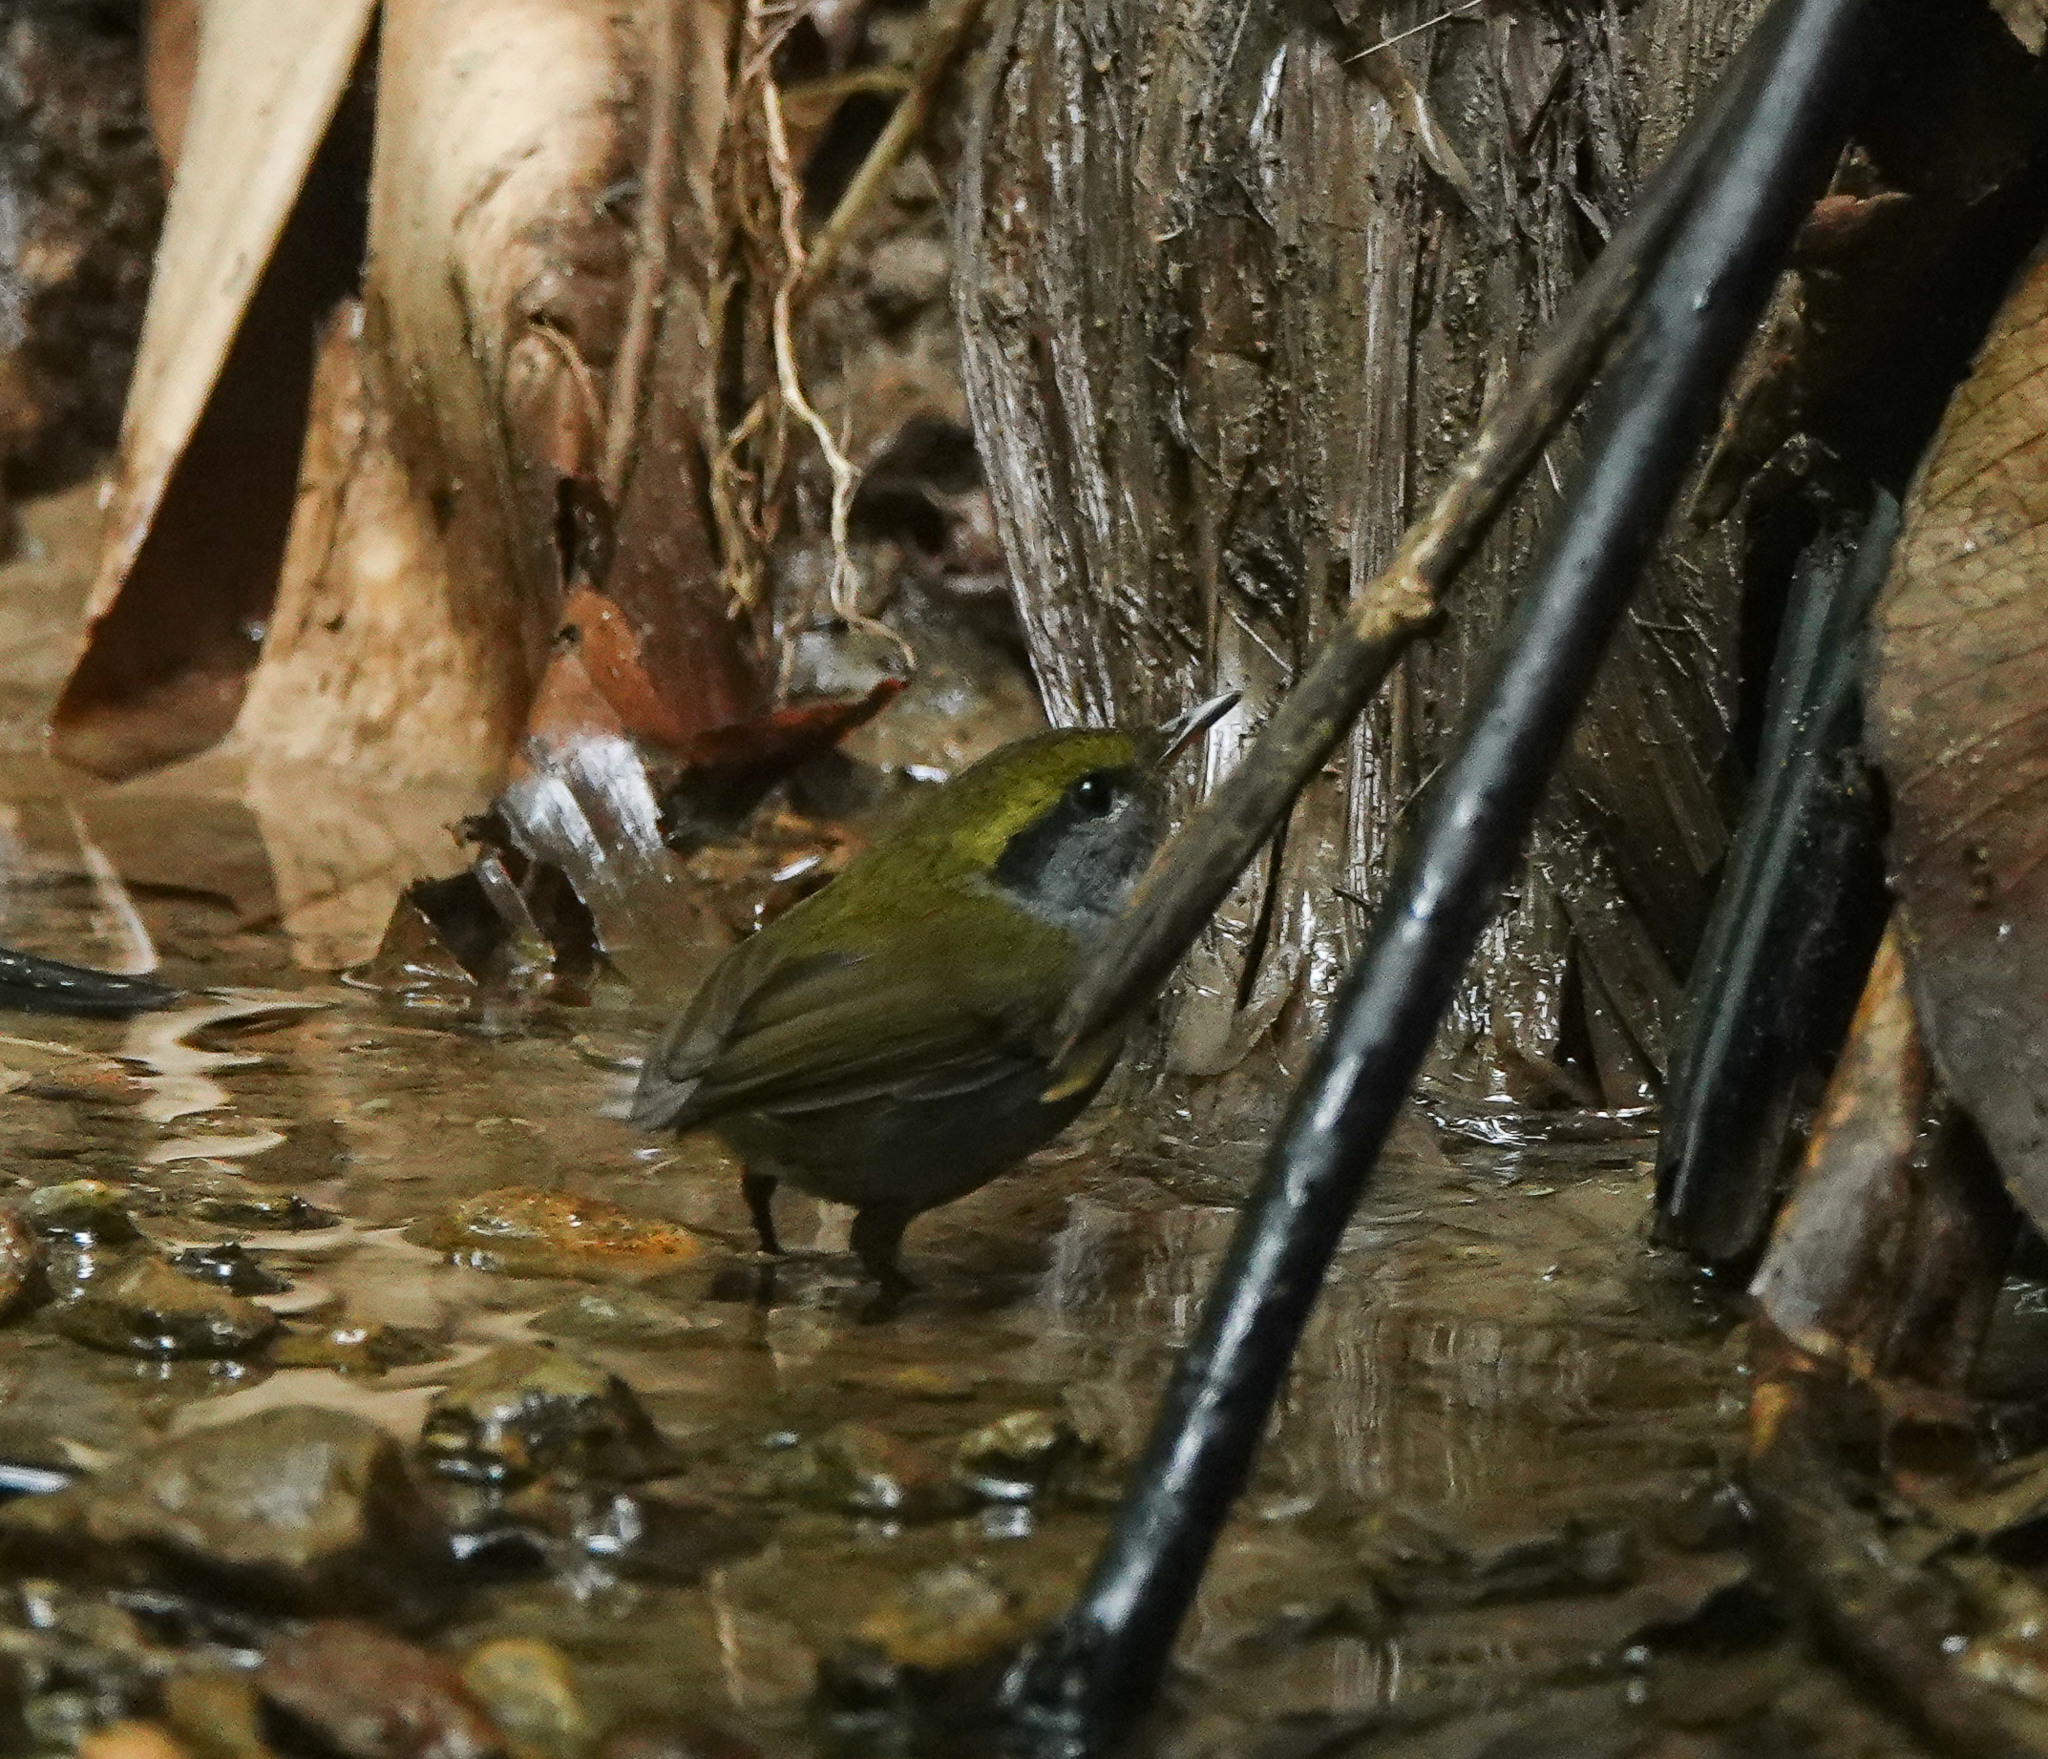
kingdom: Animalia
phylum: Chordata
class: Aves
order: Passeriformes
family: Cettiidae
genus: Tesia
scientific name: Tesia cyaniventer
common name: Grey-bellied tesia
